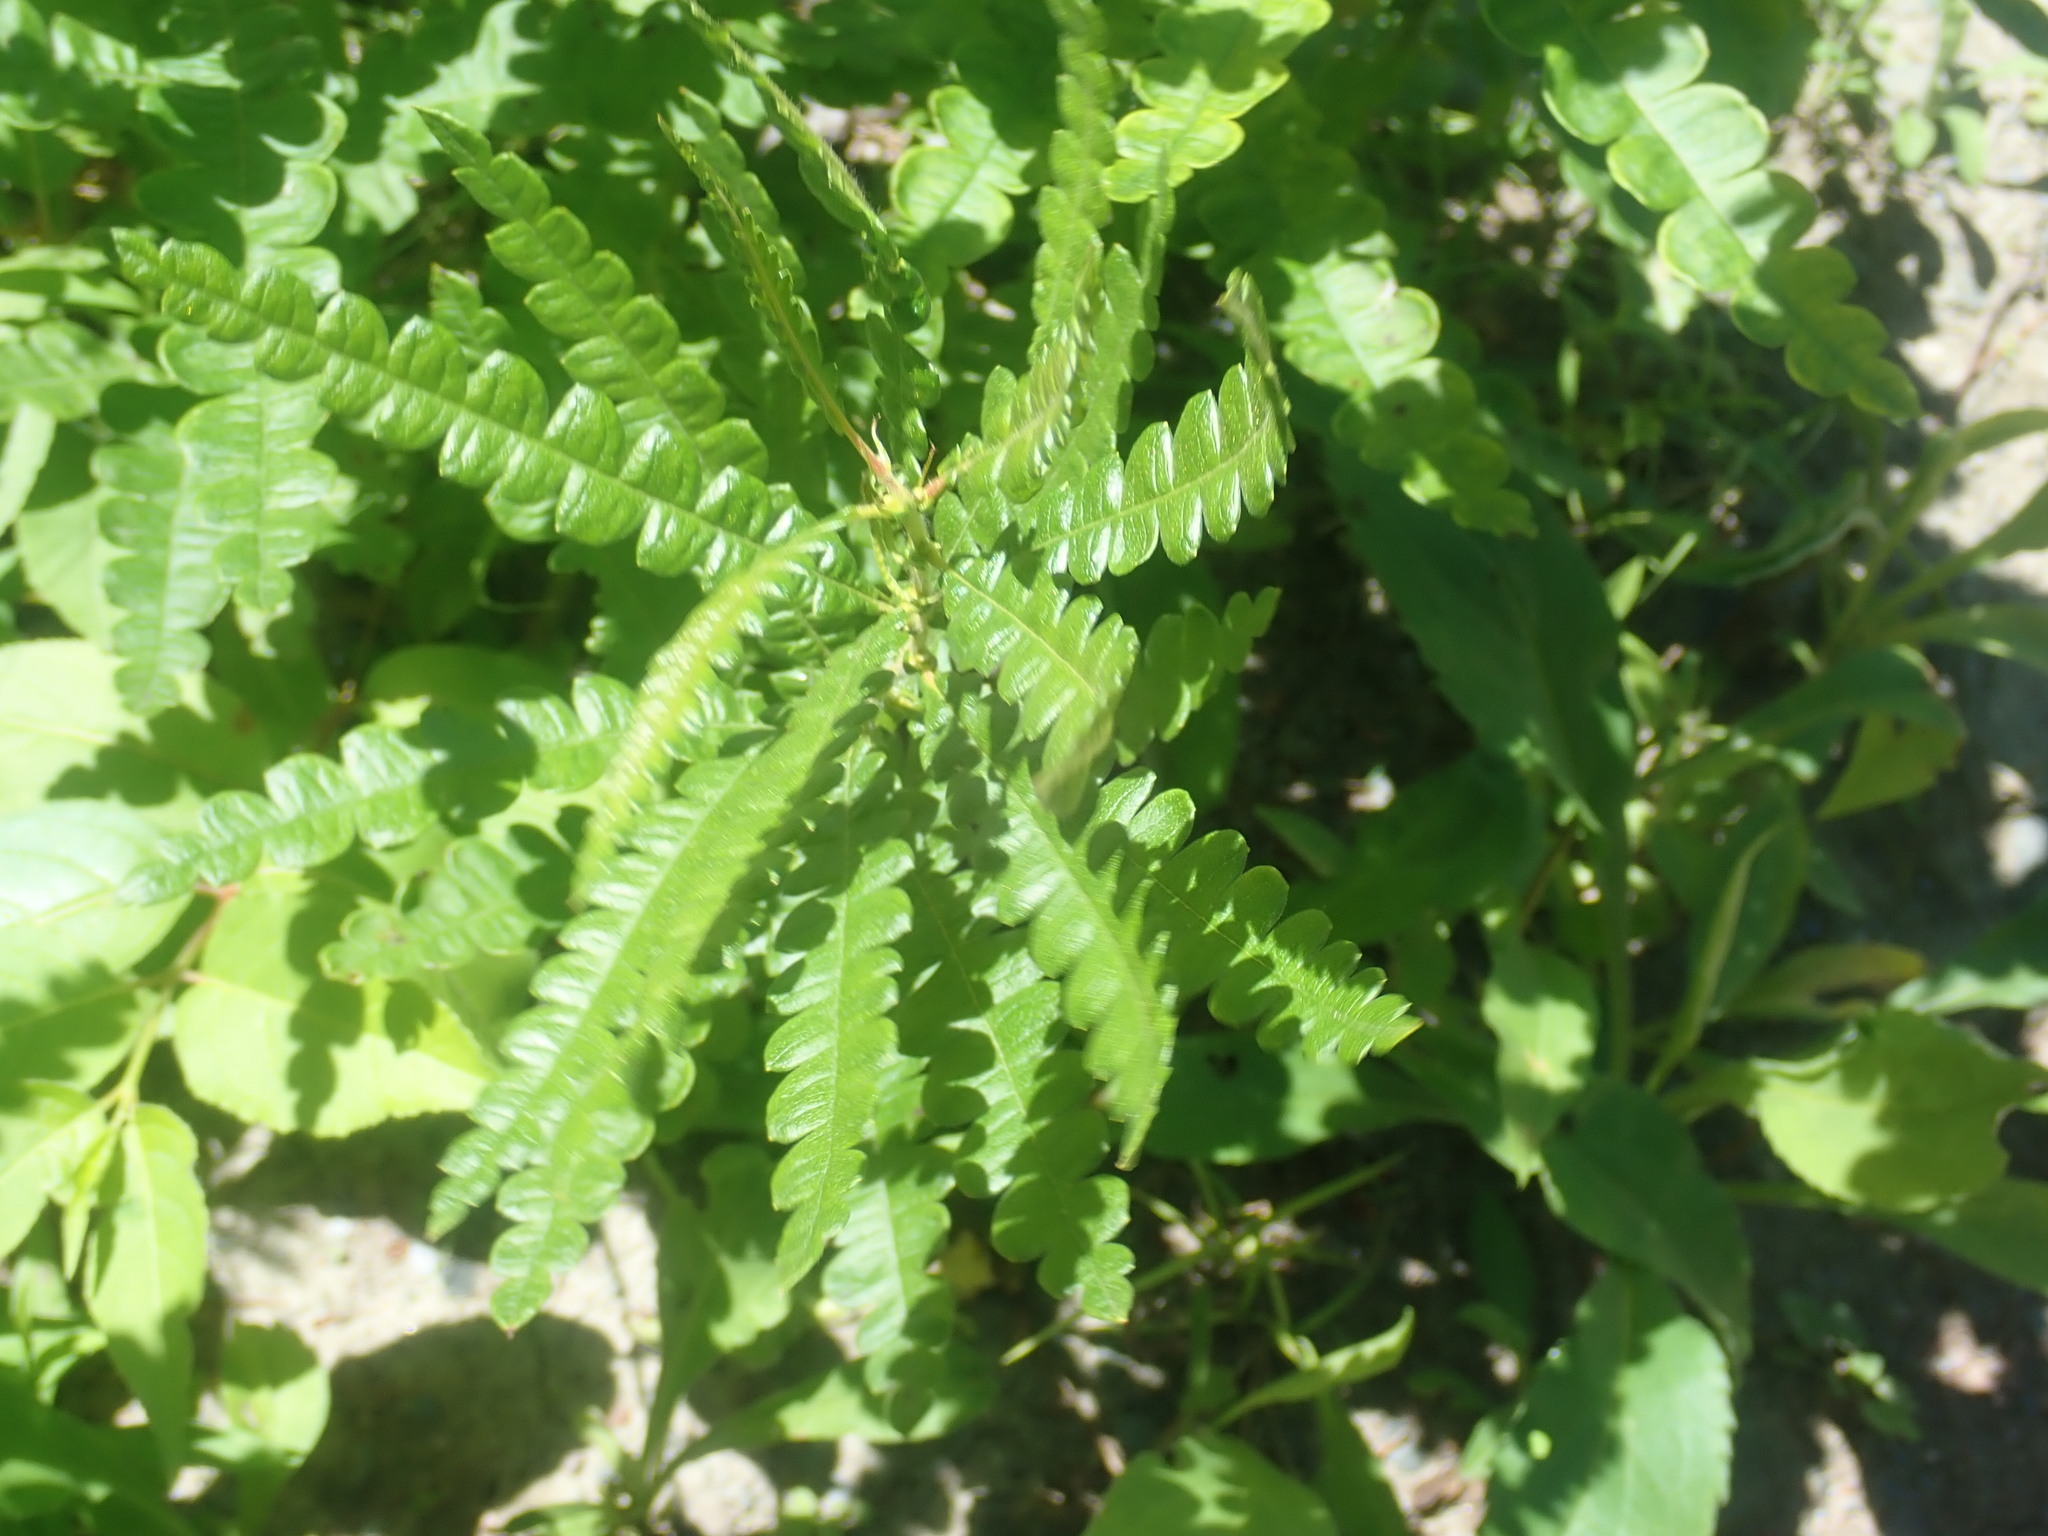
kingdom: Plantae
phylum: Tracheophyta
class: Magnoliopsida
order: Fagales
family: Myricaceae
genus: Comptonia
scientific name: Comptonia peregrina
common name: Sweet-fern
